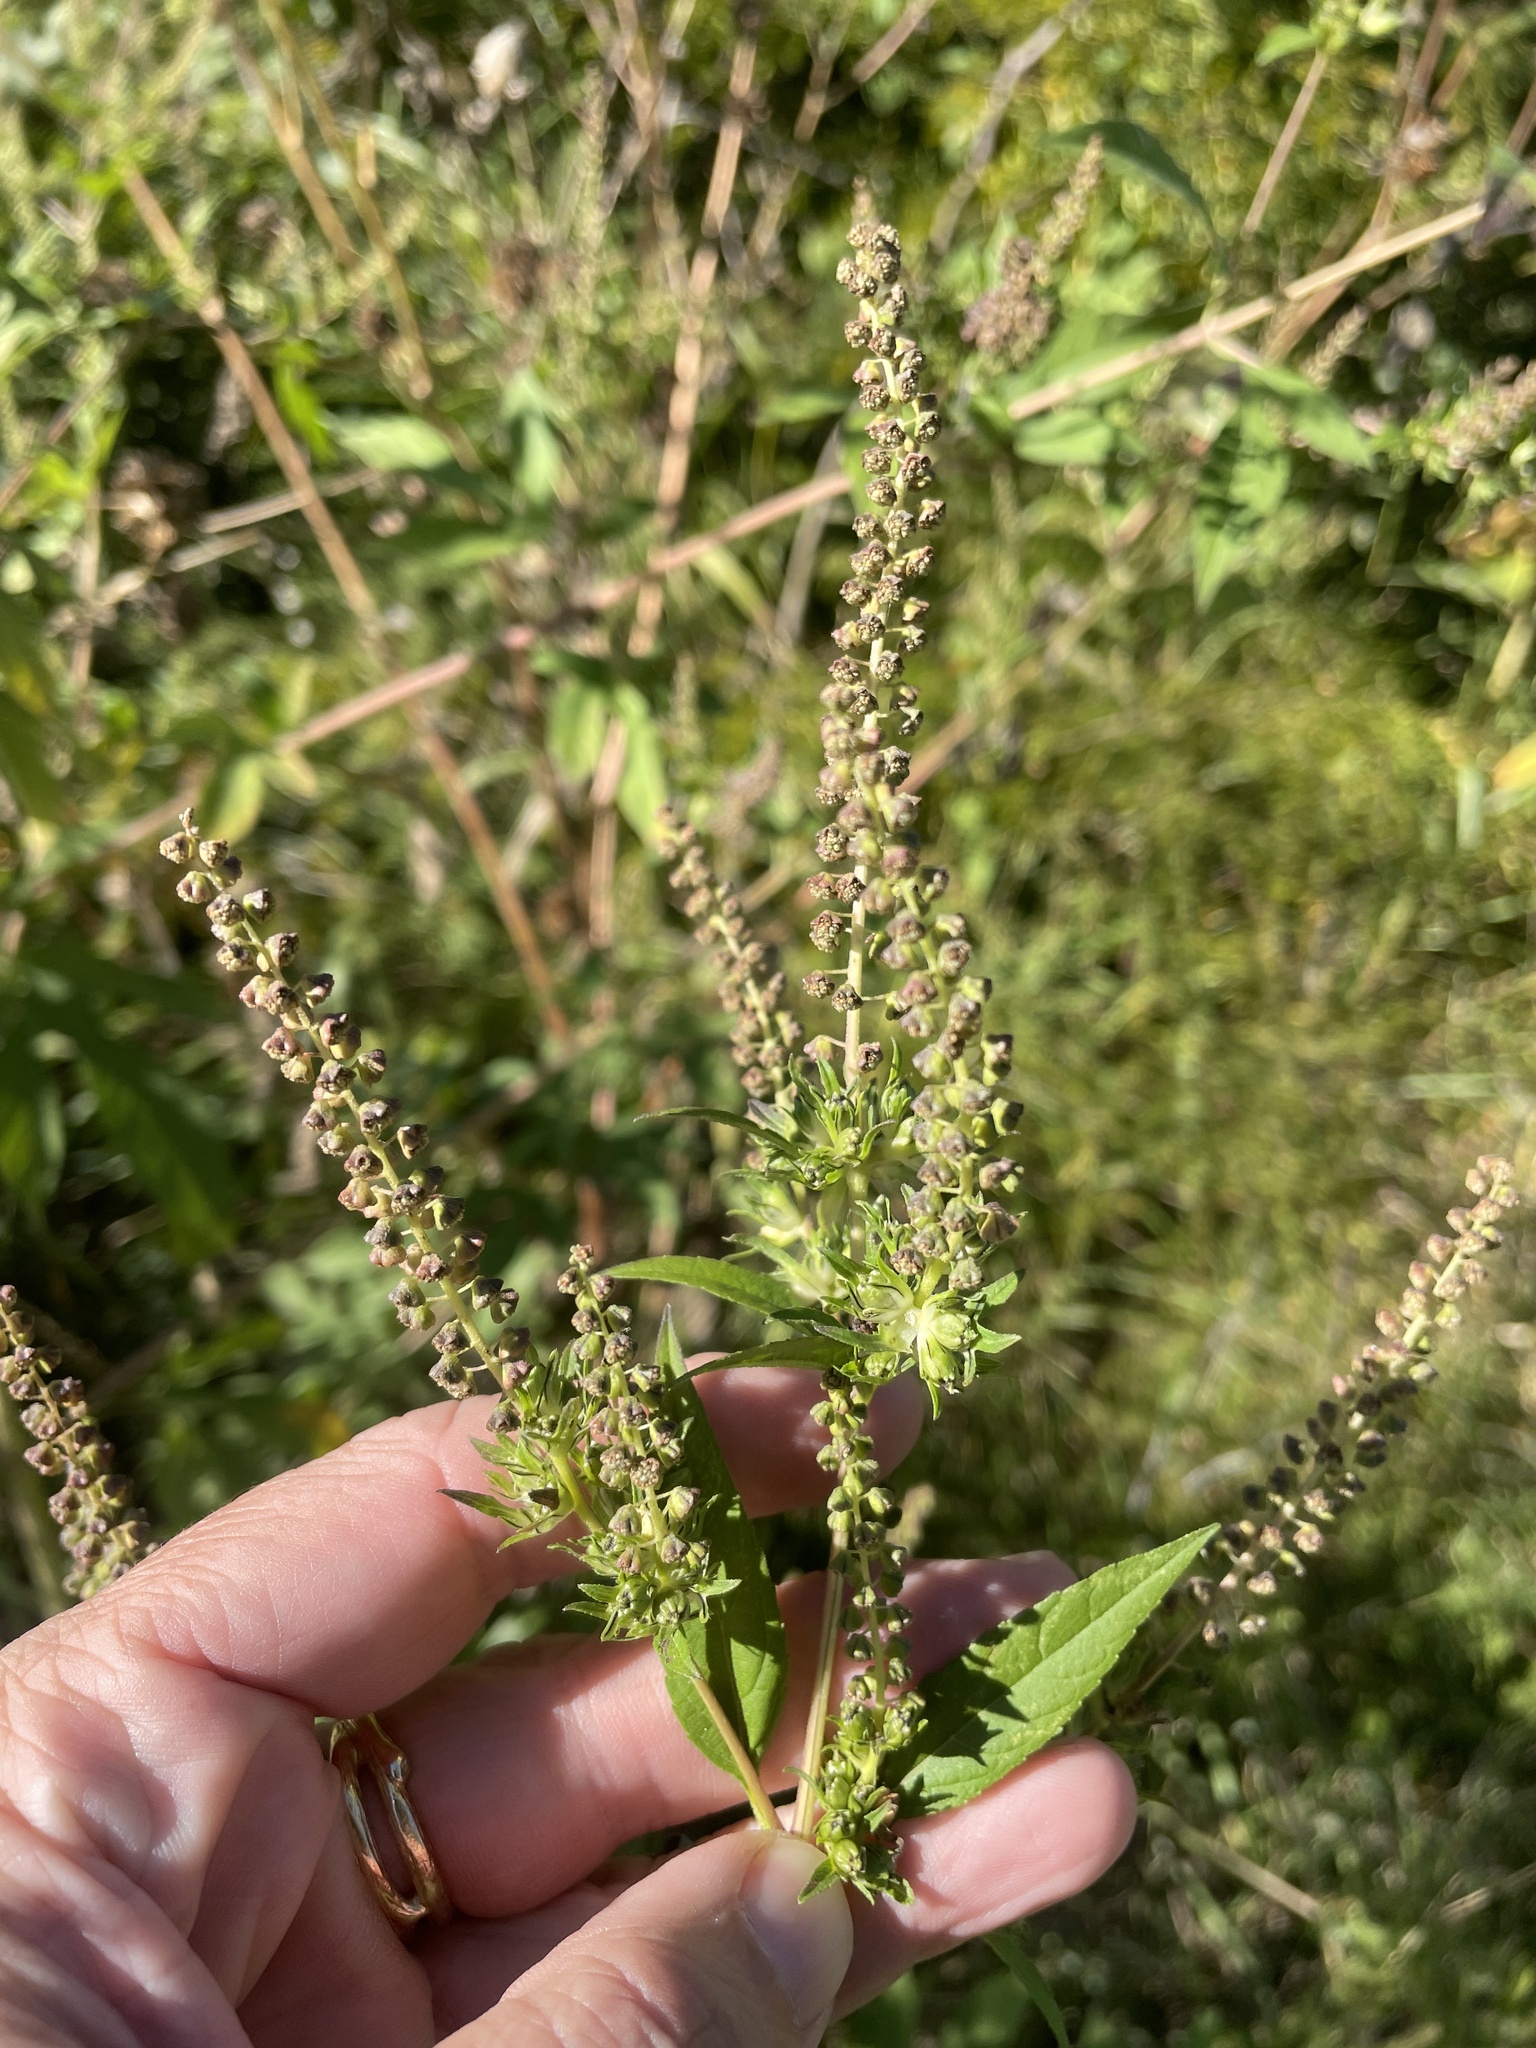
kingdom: Plantae
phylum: Tracheophyta
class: Magnoliopsida
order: Asterales
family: Asteraceae
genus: Ambrosia
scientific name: Ambrosia trifida
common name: Giant ragweed
